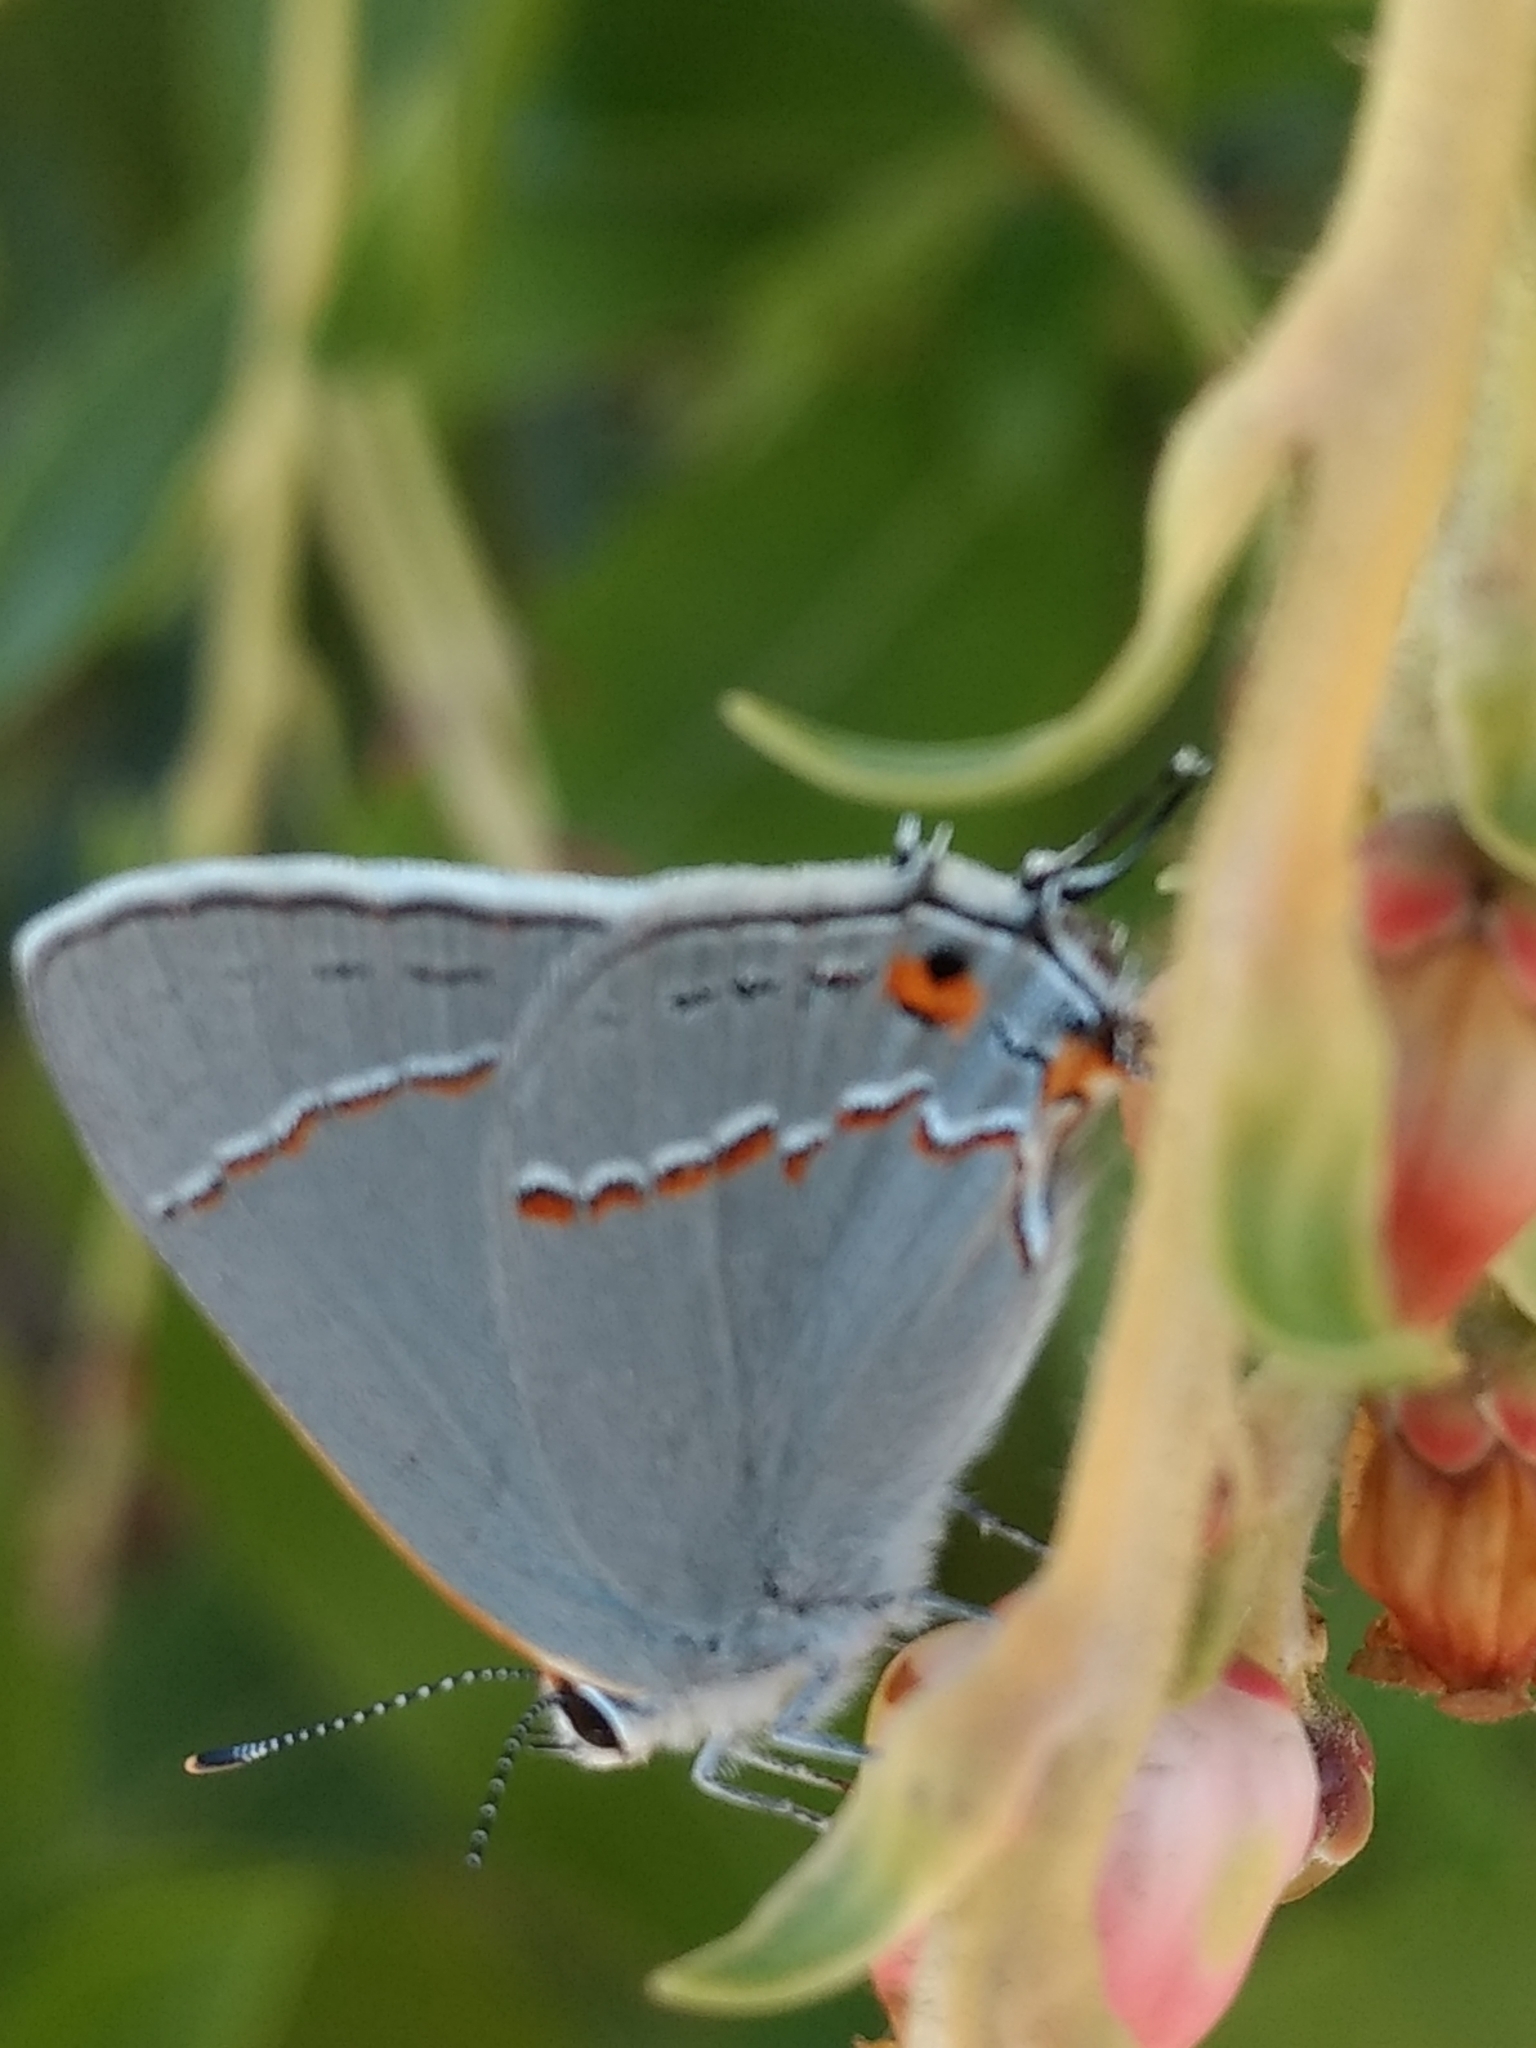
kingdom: Animalia
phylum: Arthropoda
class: Insecta
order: Lepidoptera
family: Lycaenidae
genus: Strymon
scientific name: Strymon melinus
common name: Gray hairstreak
